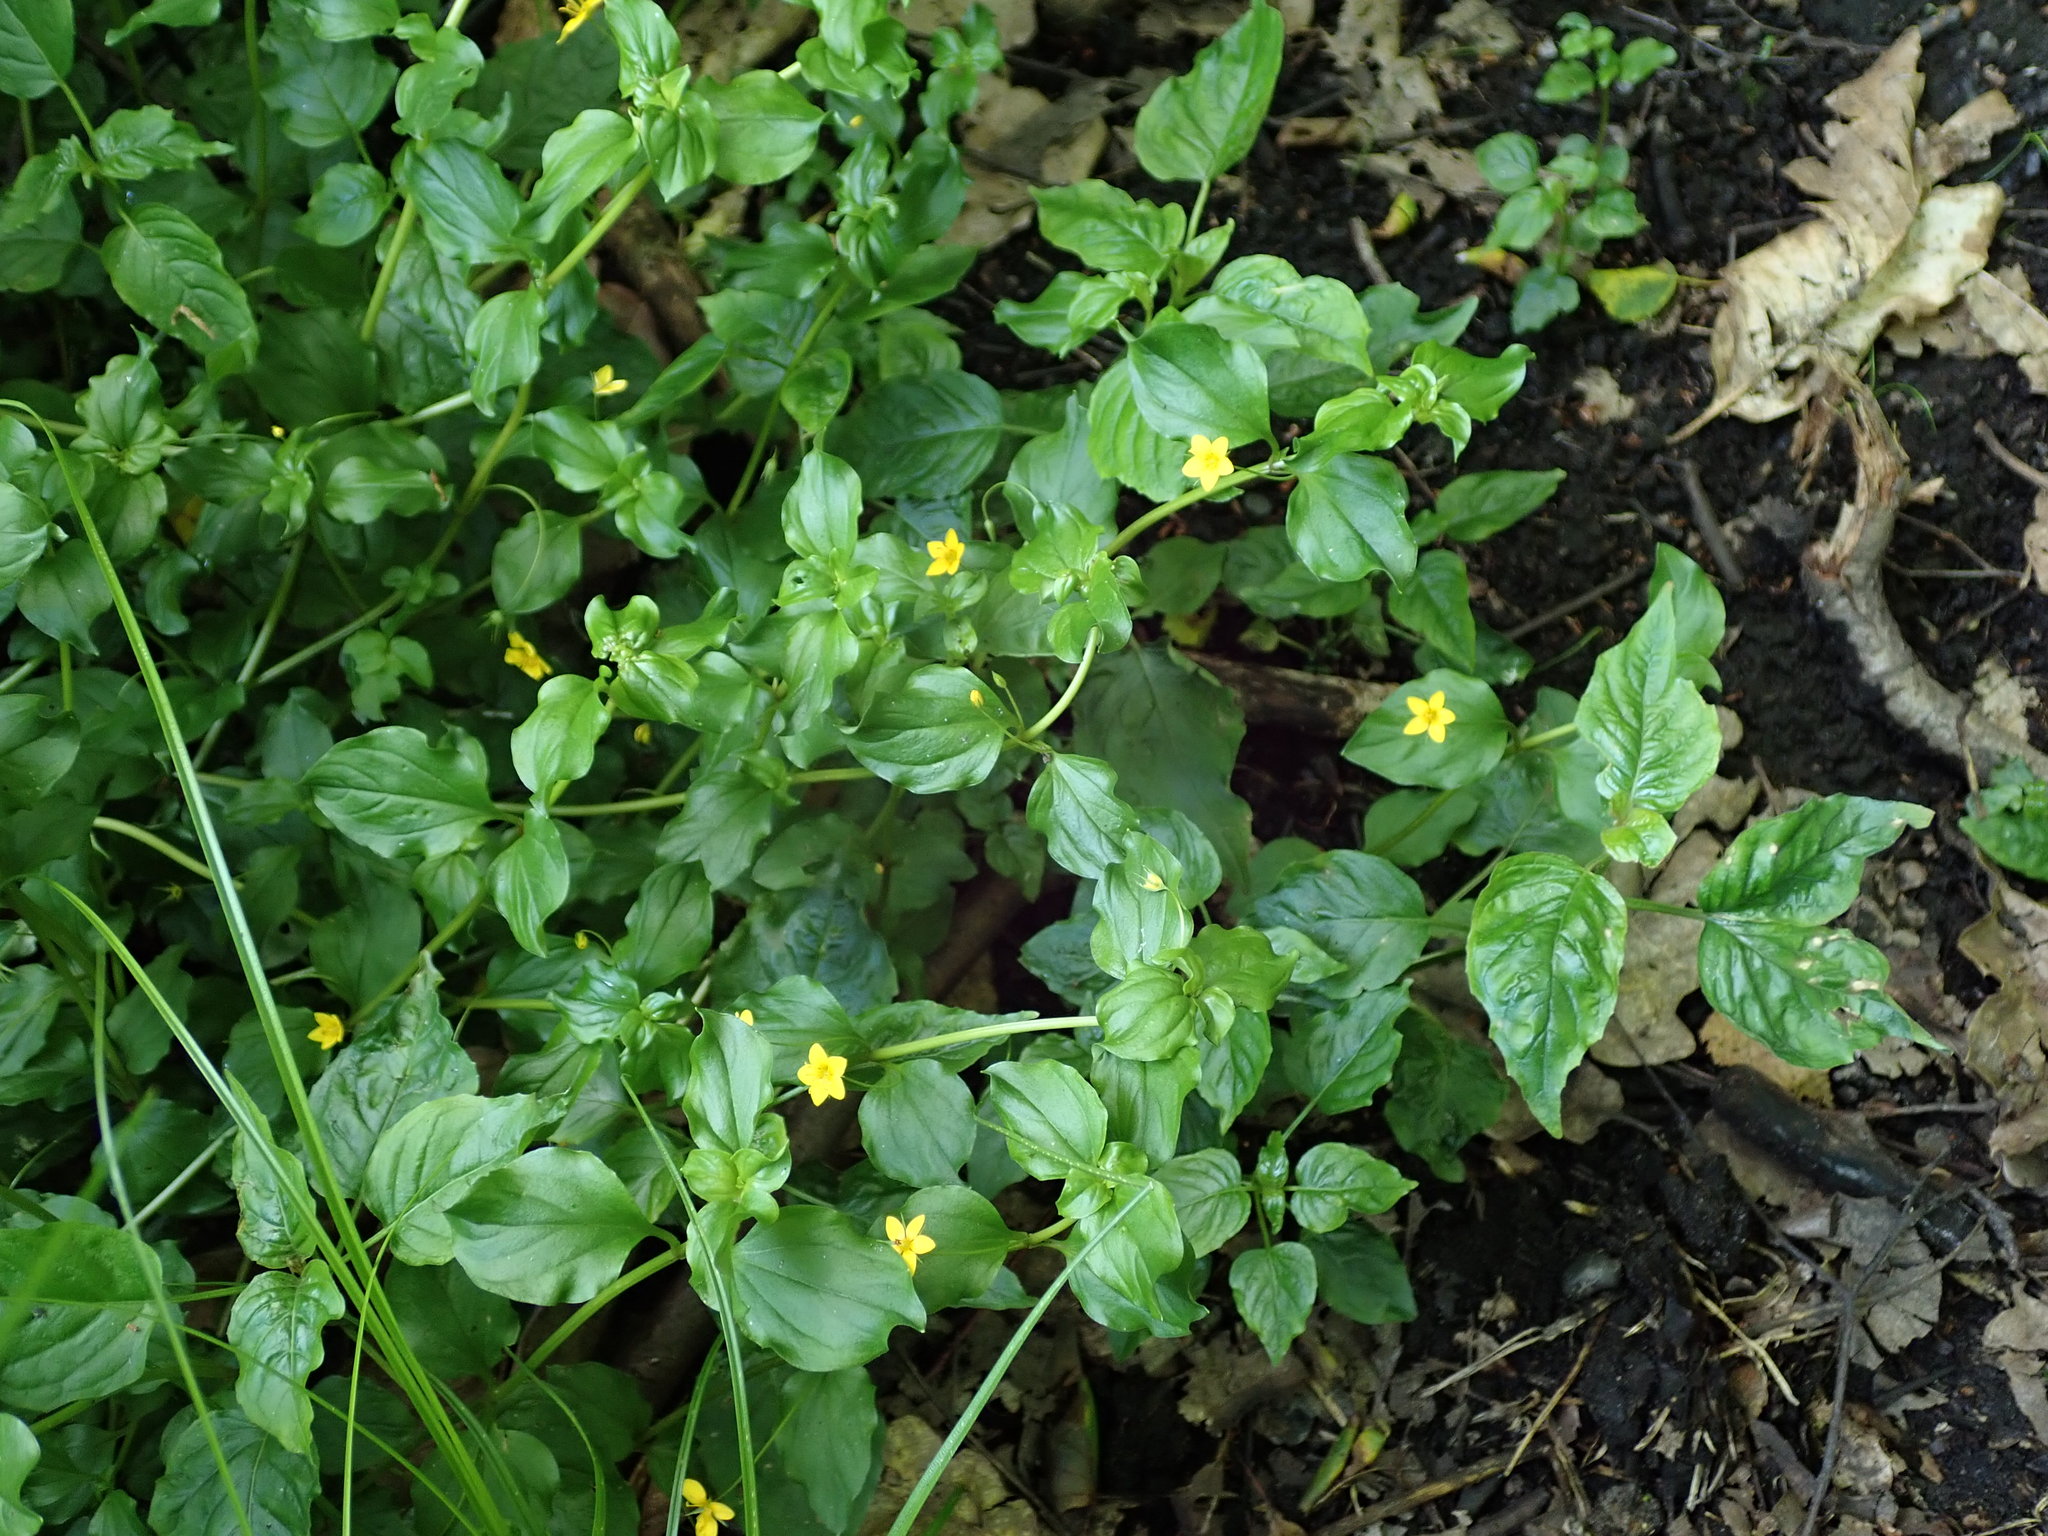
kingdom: Plantae
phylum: Tracheophyta
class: Magnoliopsida
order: Ericales
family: Primulaceae
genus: Lysimachia
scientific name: Lysimachia nemorum
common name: Yellow pimpernel
